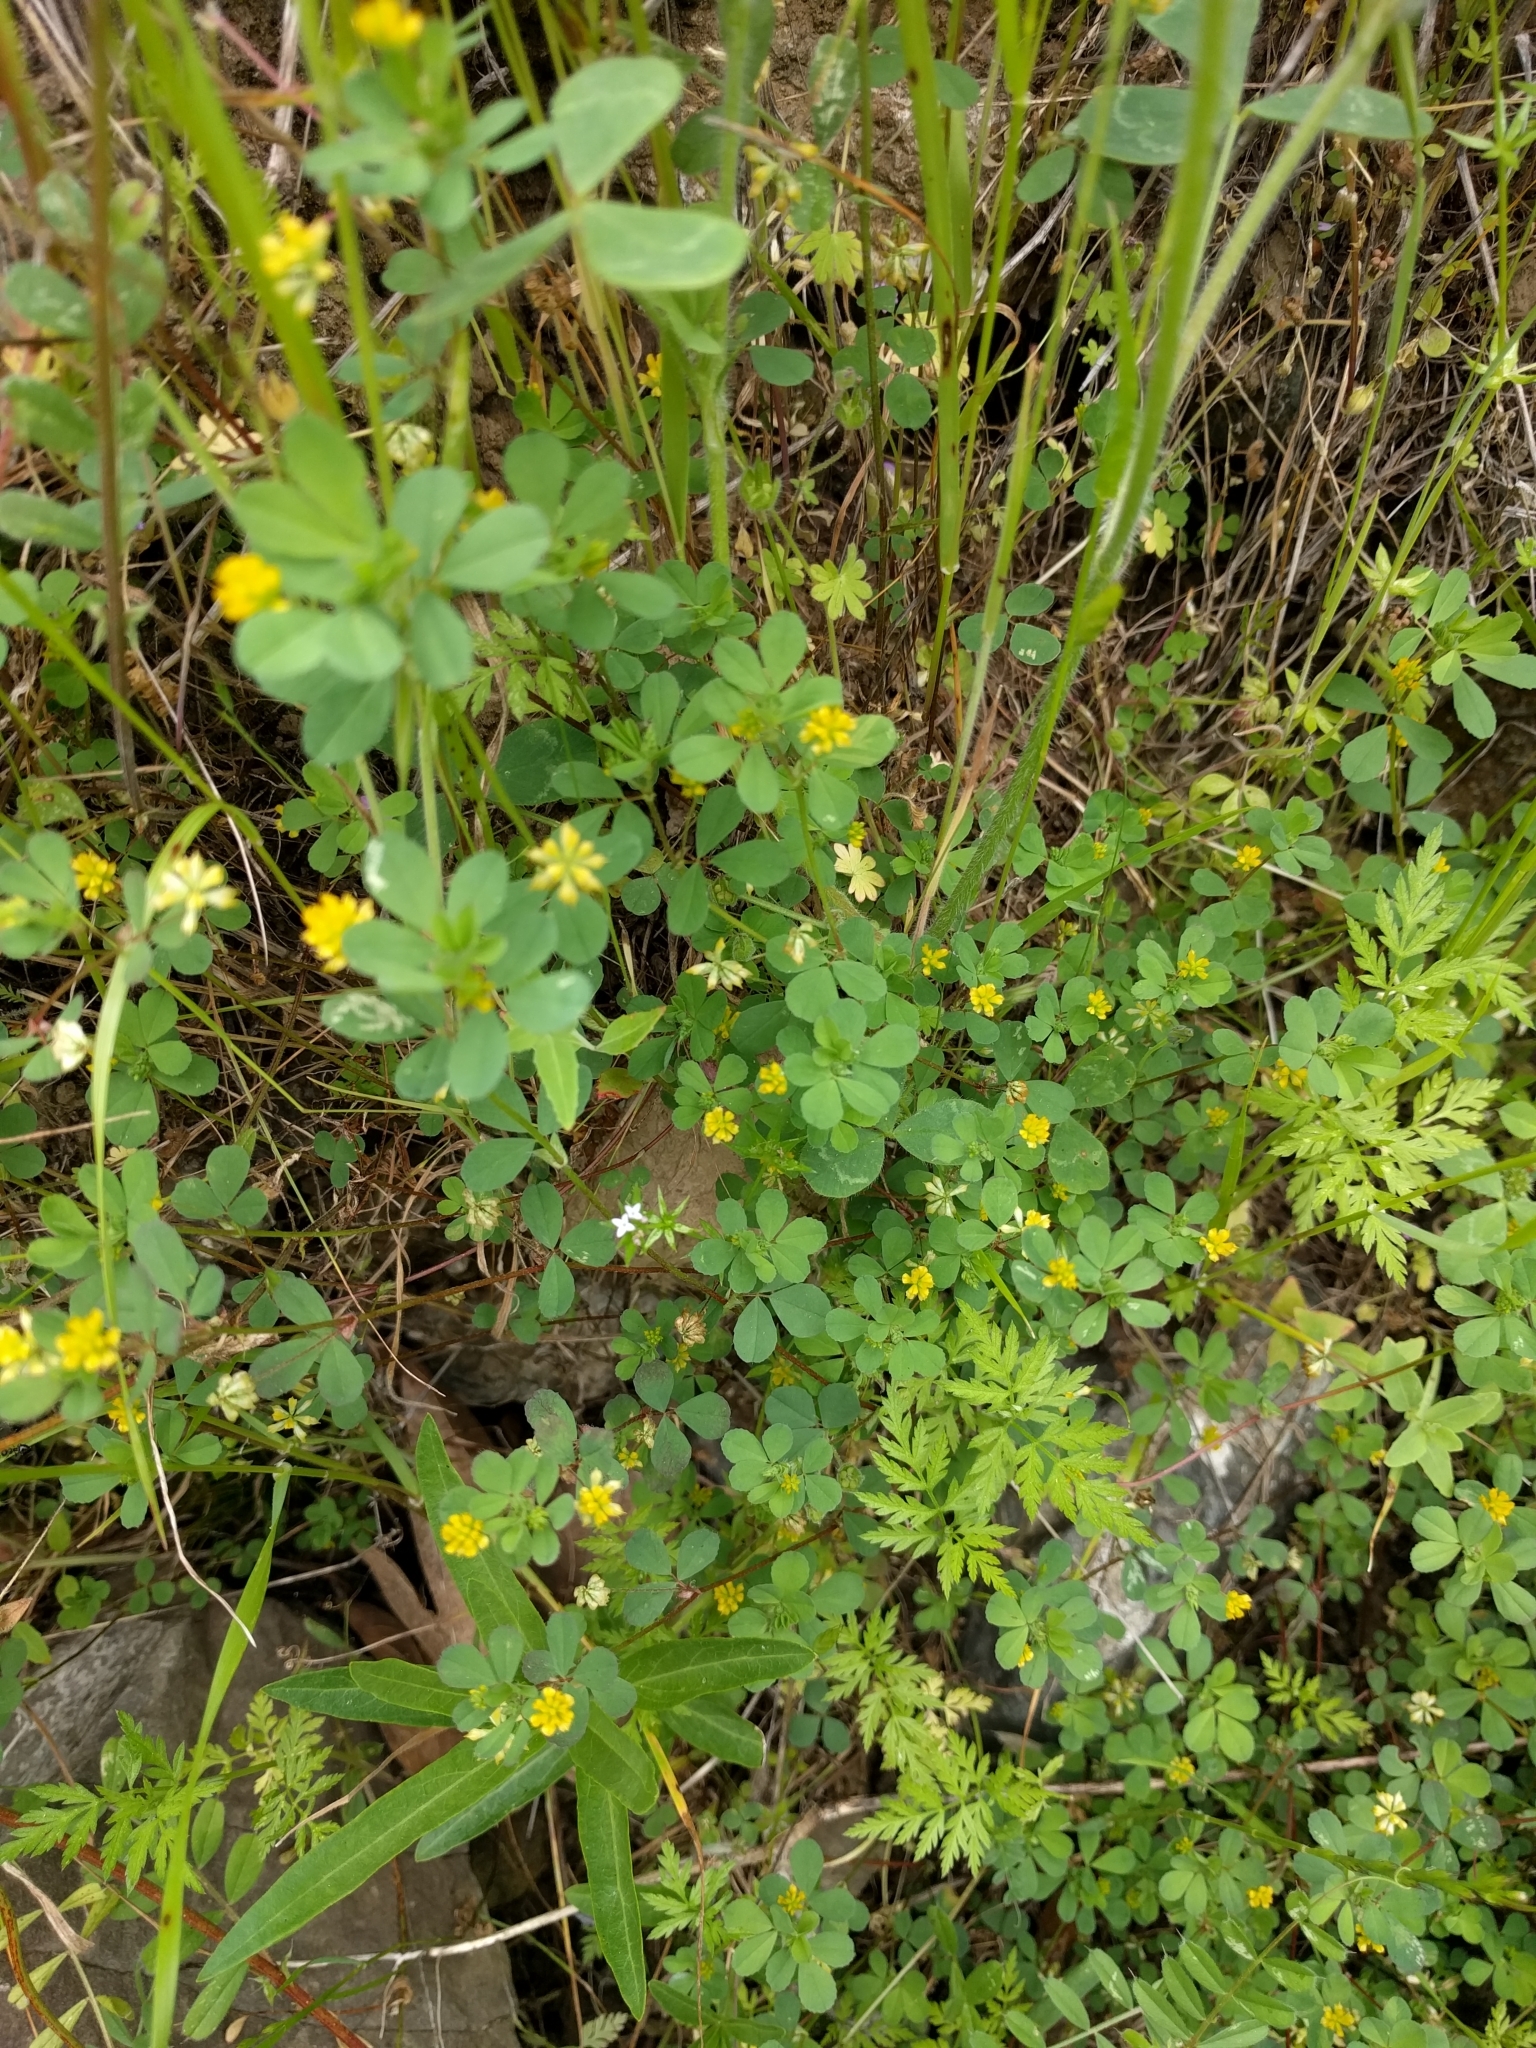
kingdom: Plantae
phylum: Tracheophyta
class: Magnoliopsida
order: Fabales
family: Fabaceae
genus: Trifolium
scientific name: Trifolium dubium
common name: Suckling clover
